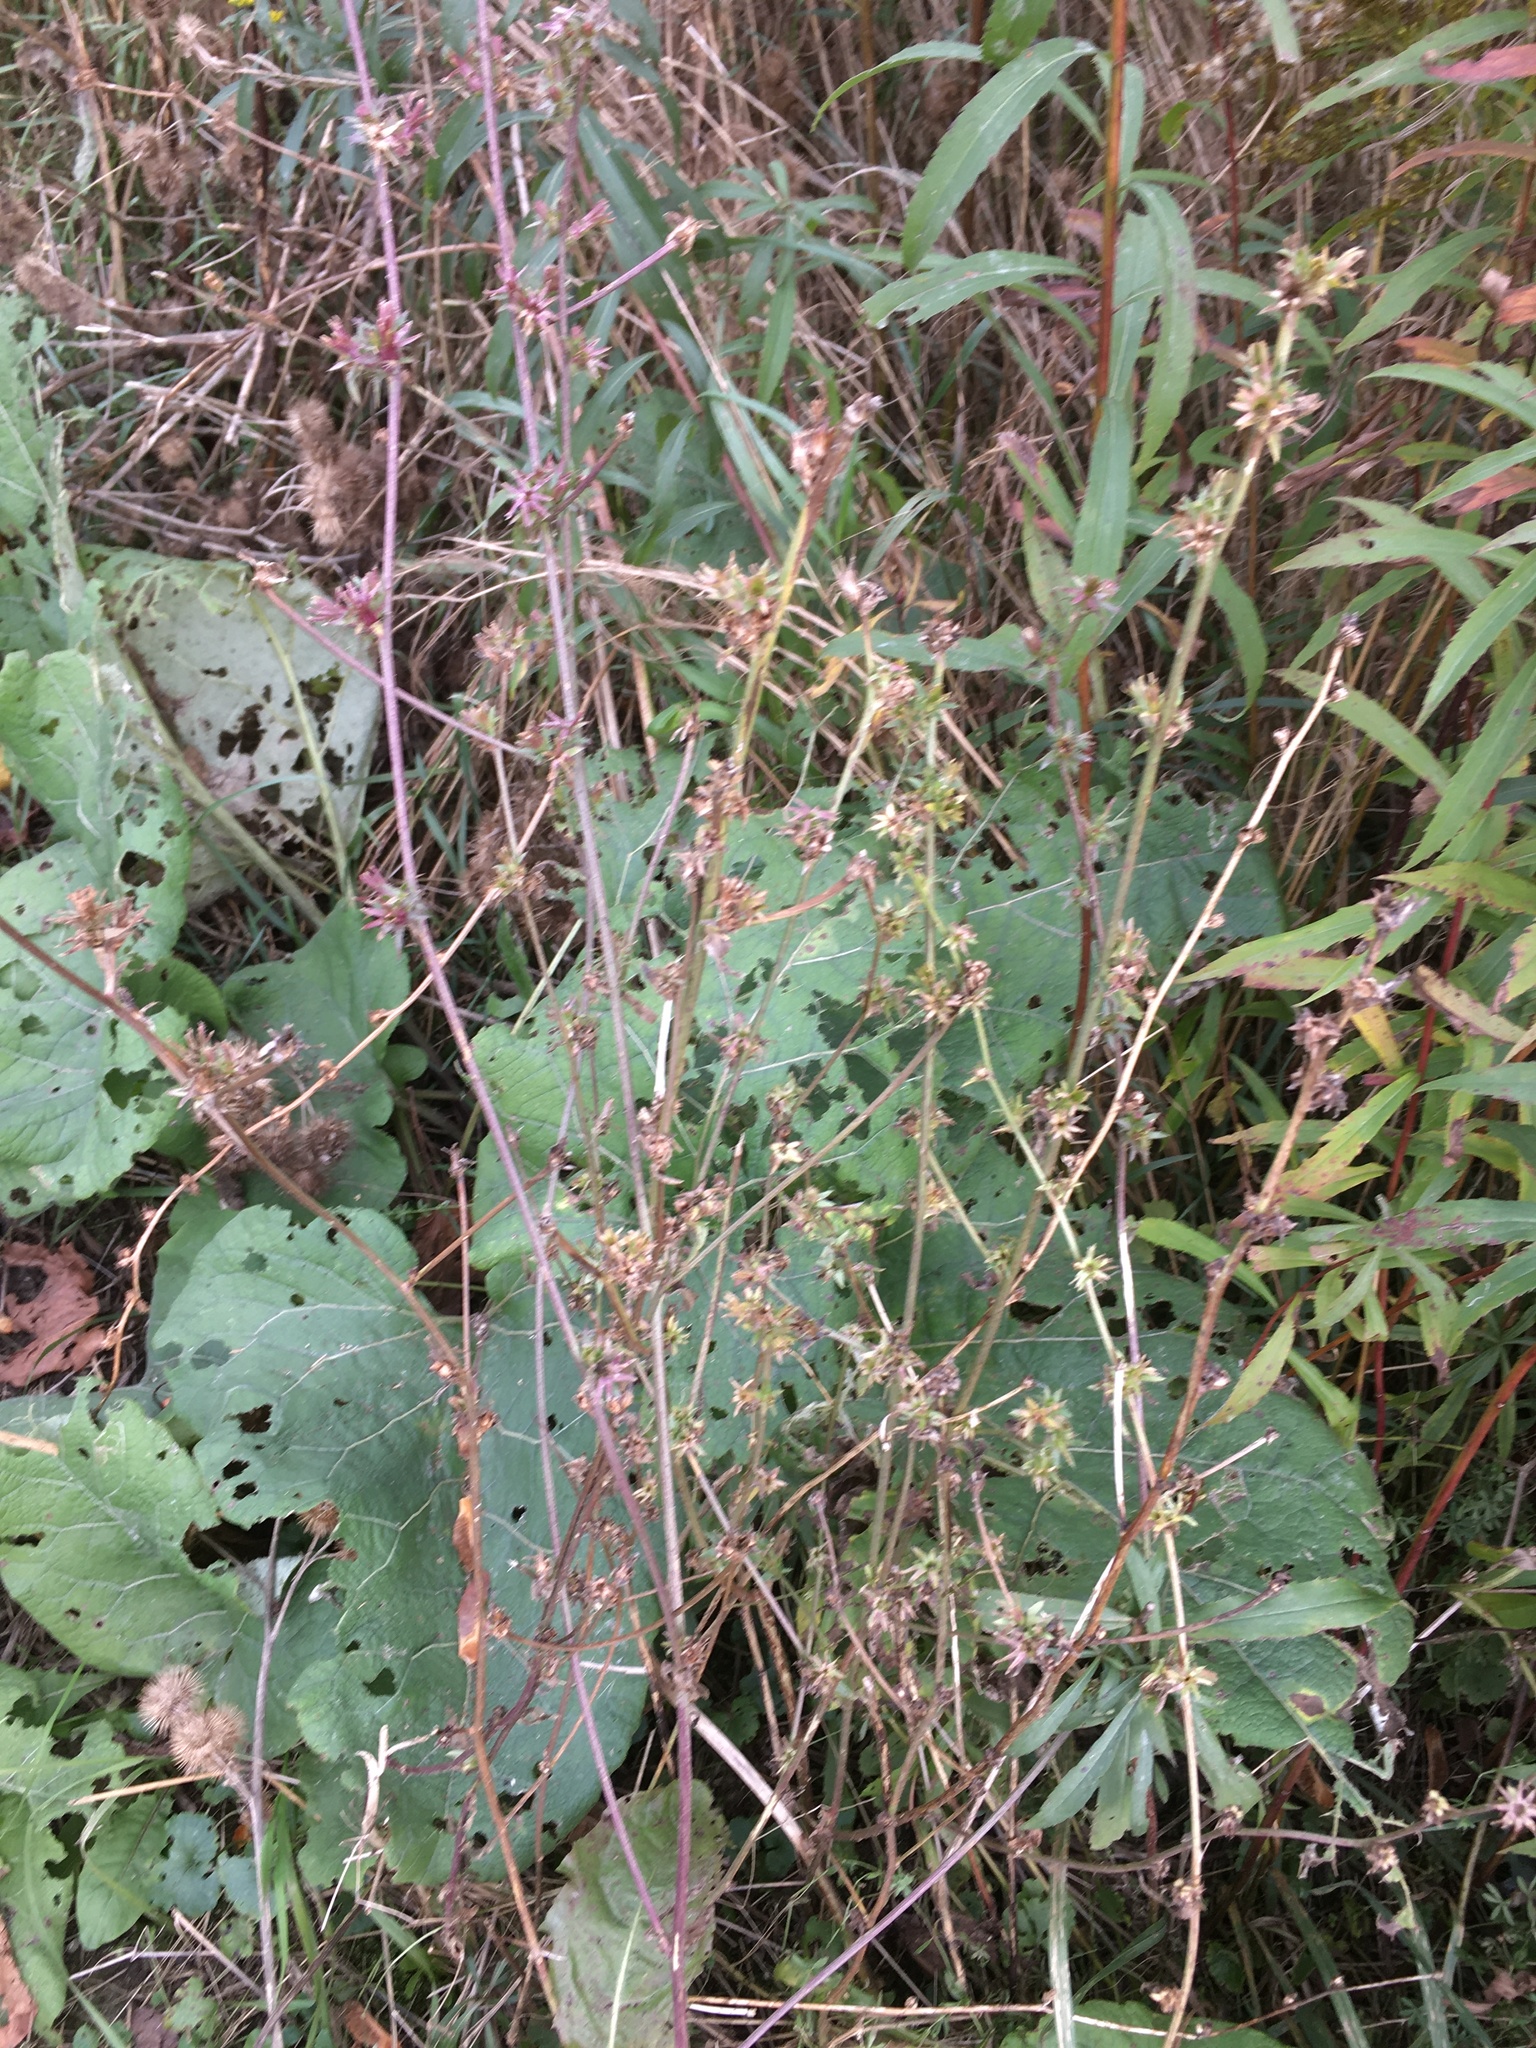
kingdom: Plantae
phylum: Tracheophyta
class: Magnoliopsida
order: Asterales
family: Asteraceae
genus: Cichorium
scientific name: Cichorium intybus
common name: Chicory
